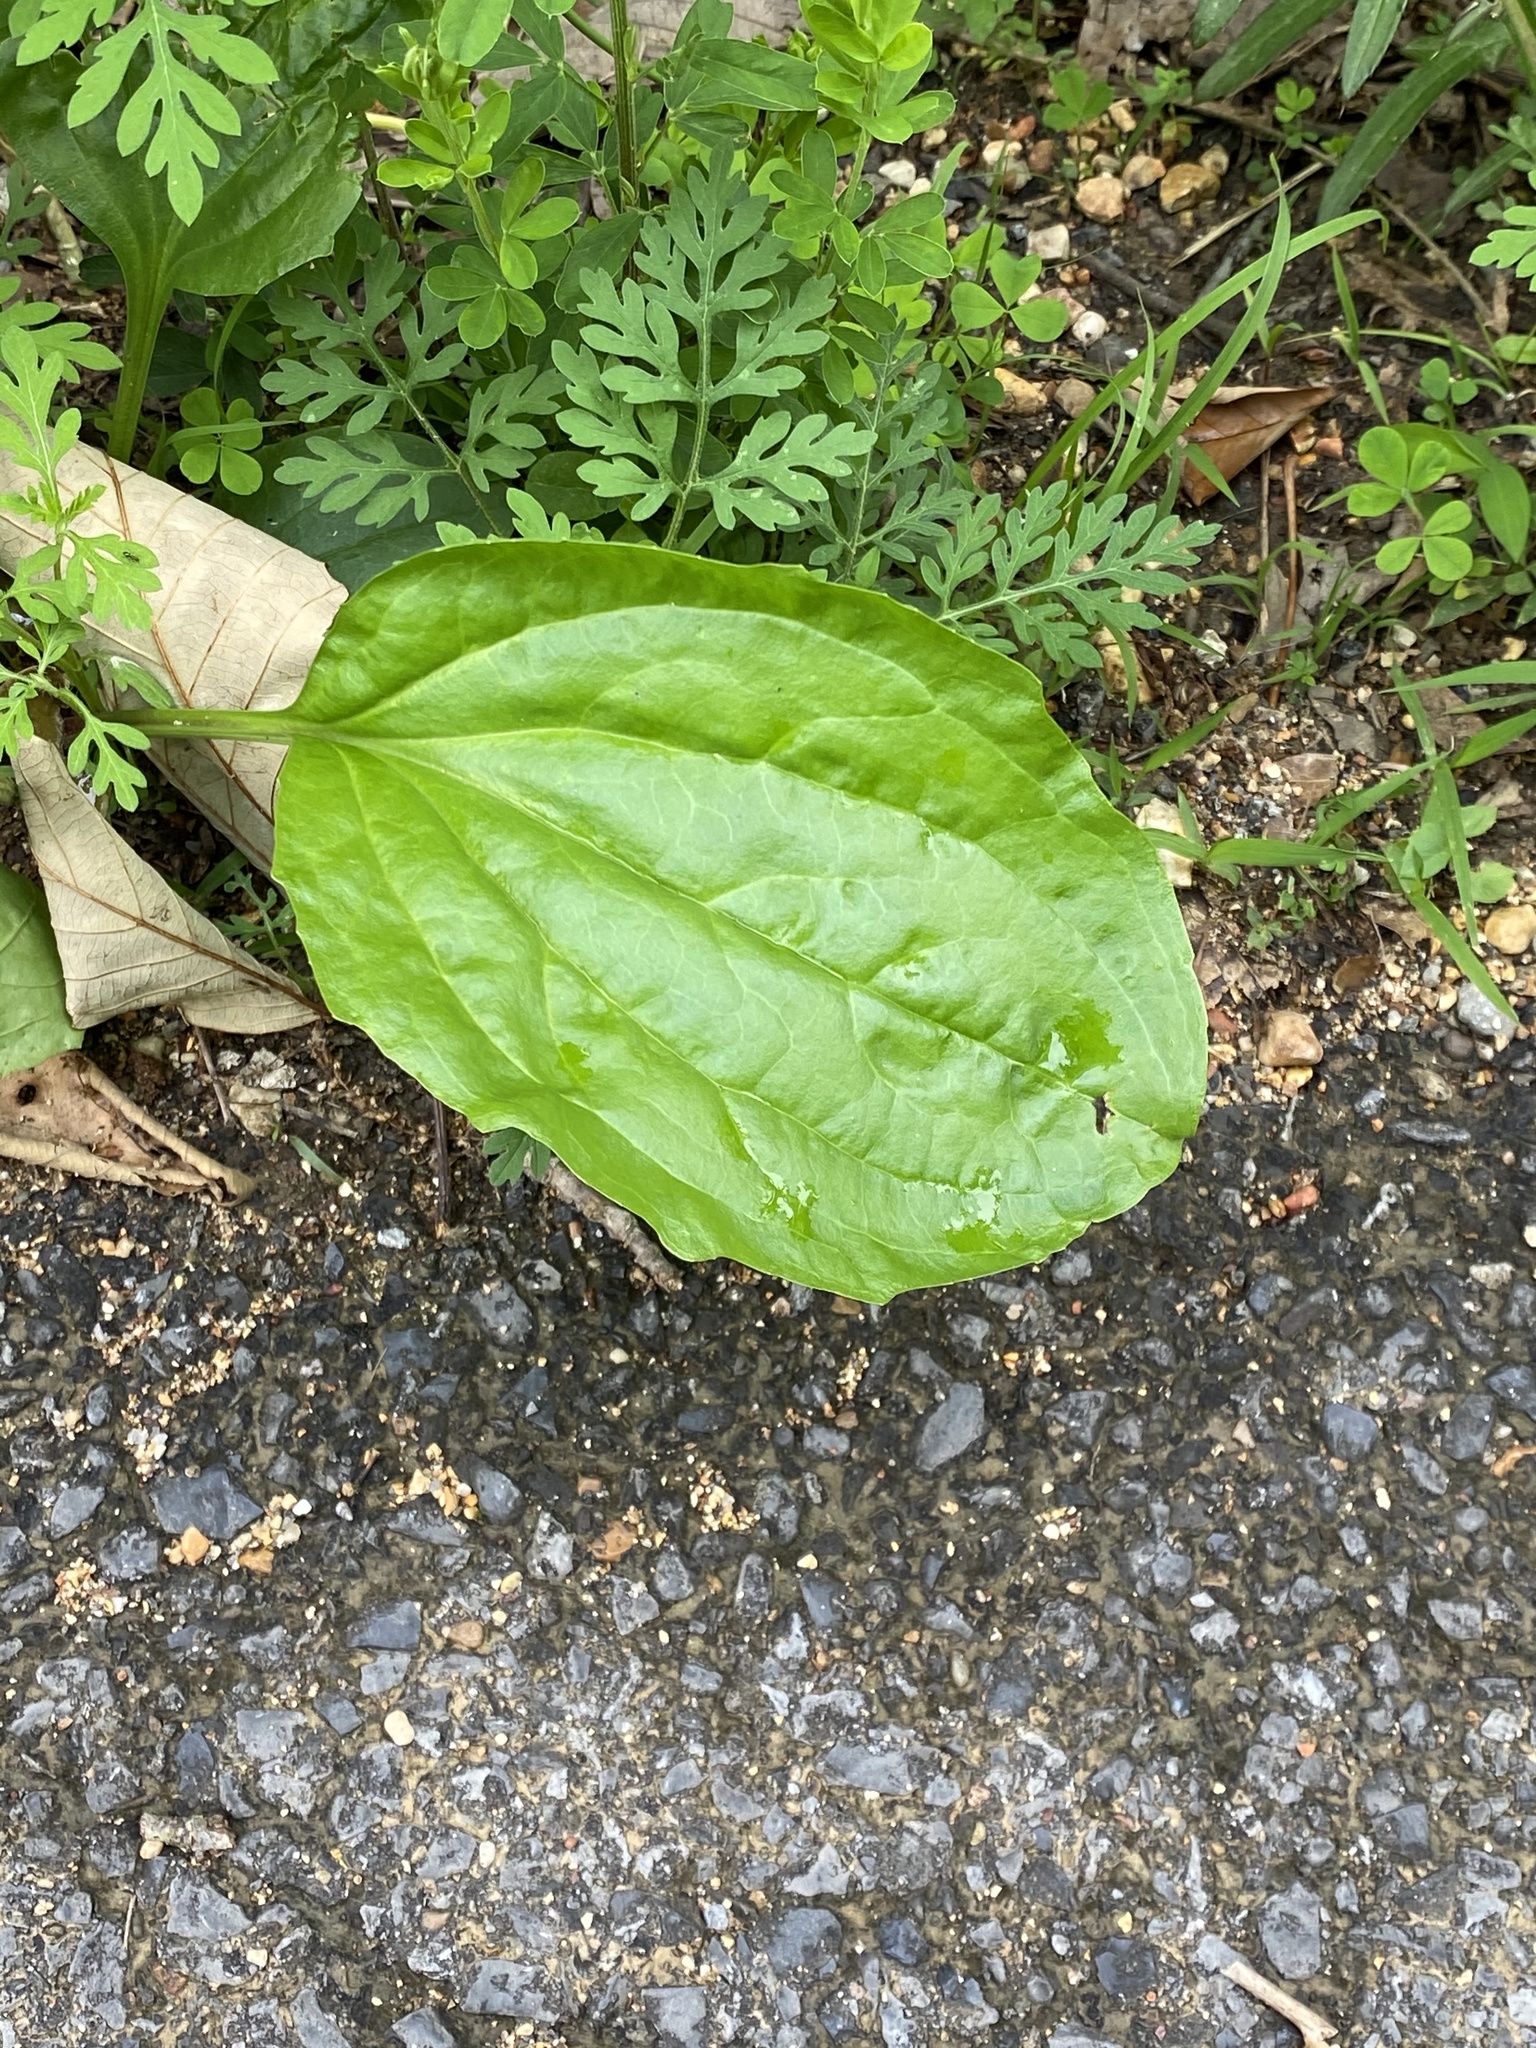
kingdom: Plantae
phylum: Tracheophyta
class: Magnoliopsida
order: Lamiales
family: Plantaginaceae
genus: Plantago
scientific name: Plantago rugelii
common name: American plantain
